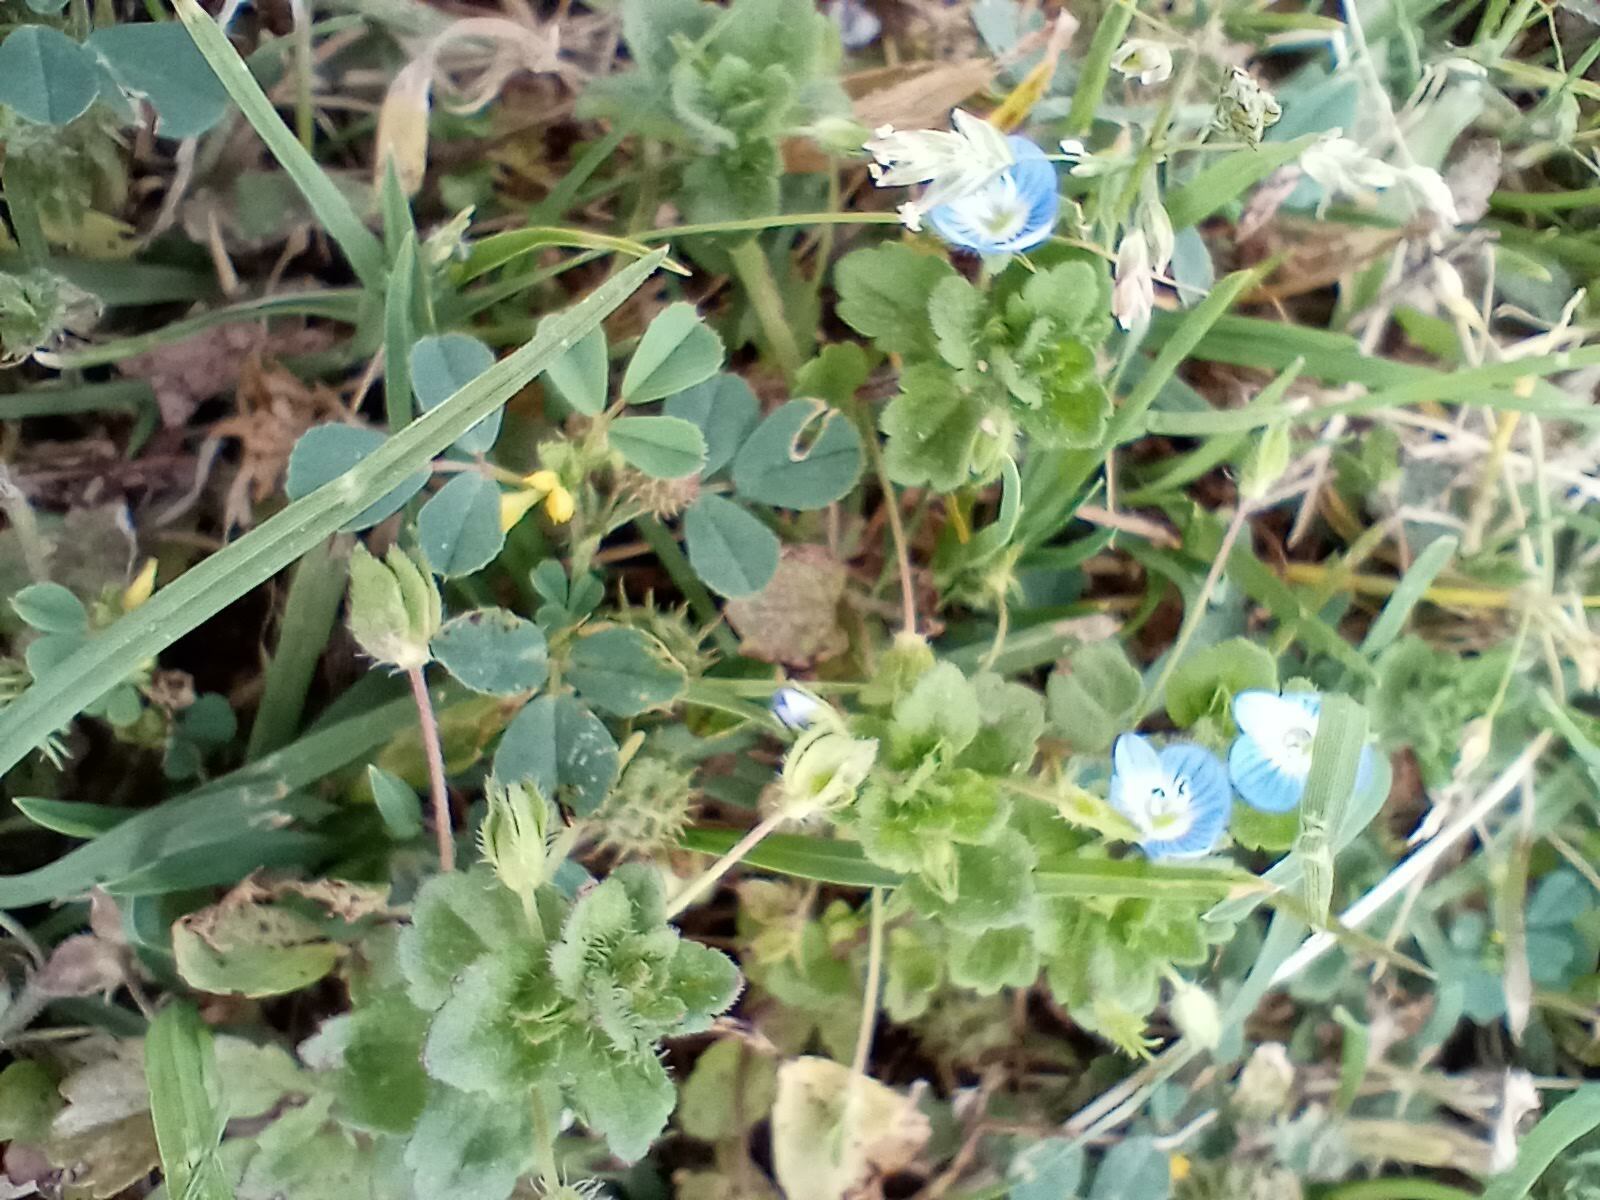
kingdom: Plantae
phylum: Tracheophyta
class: Magnoliopsida
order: Fabales
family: Fabaceae
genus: Medicago
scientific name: Medicago polymorpha
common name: Burclover
